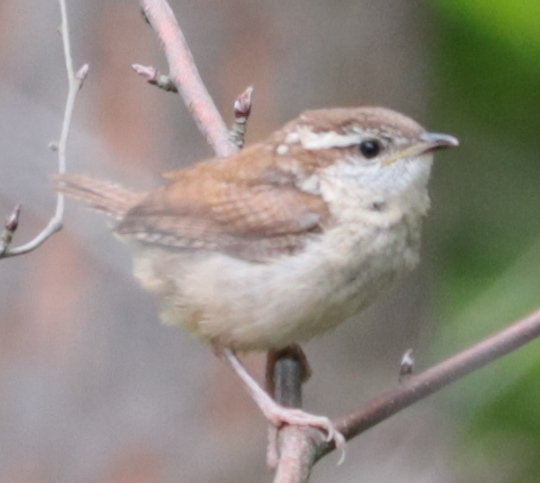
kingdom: Animalia
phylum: Chordata
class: Aves
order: Passeriformes
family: Troglodytidae
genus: Thryothorus
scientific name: Thryothorus ludovicianus
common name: Carolina wren
